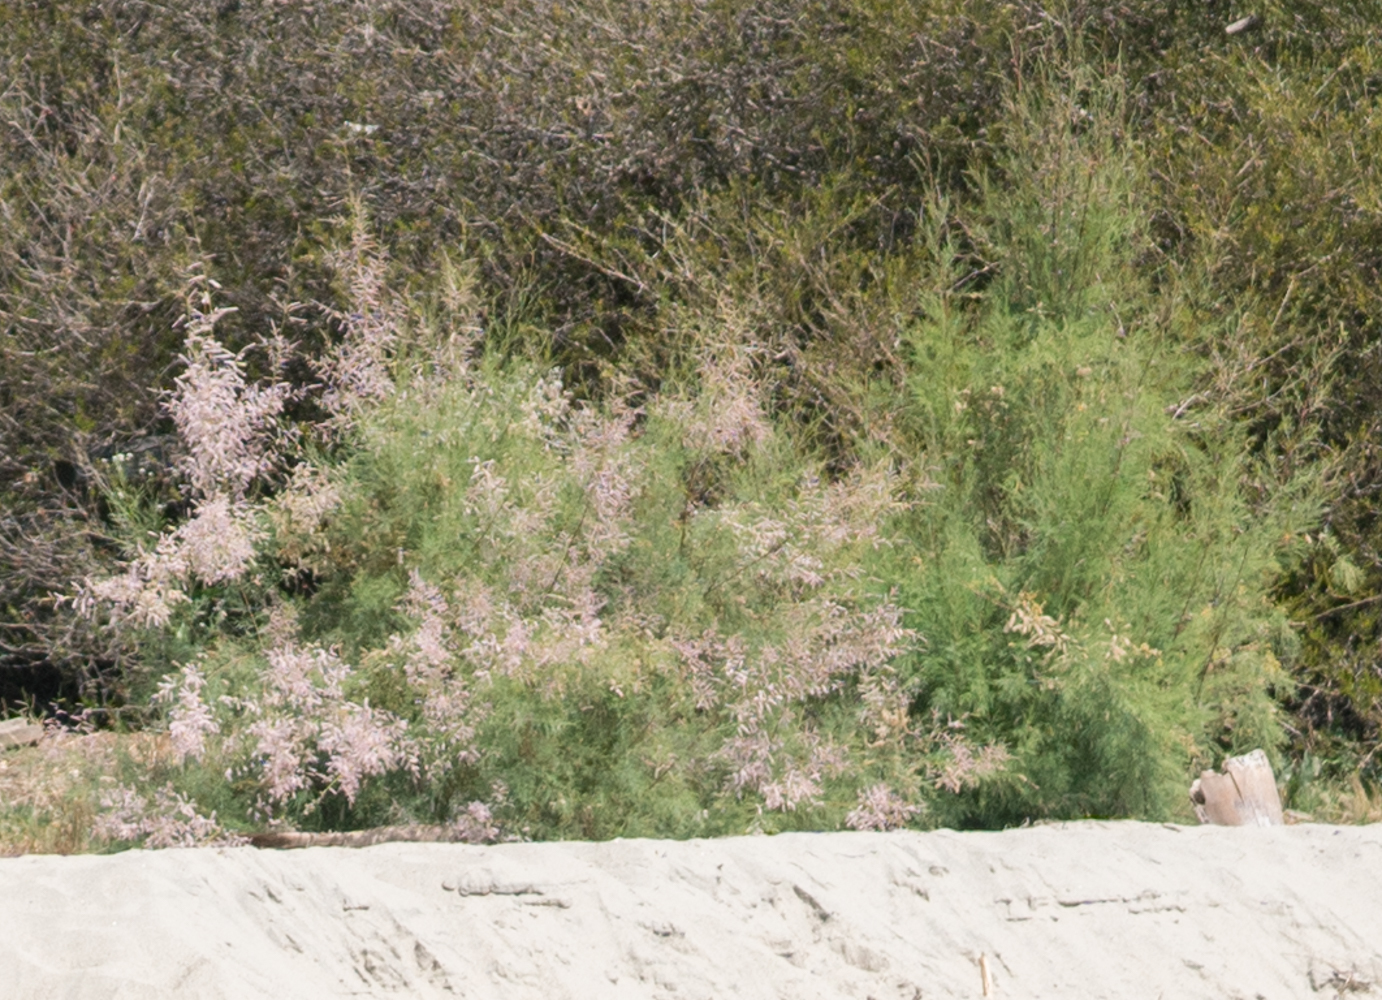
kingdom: Plantae
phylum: Tracheophyta
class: Magnoliopsida
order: Caryophyllales
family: Tamaricaceae
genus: Tamarix
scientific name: Tamarix ramosissima
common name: Pink tamarisk
